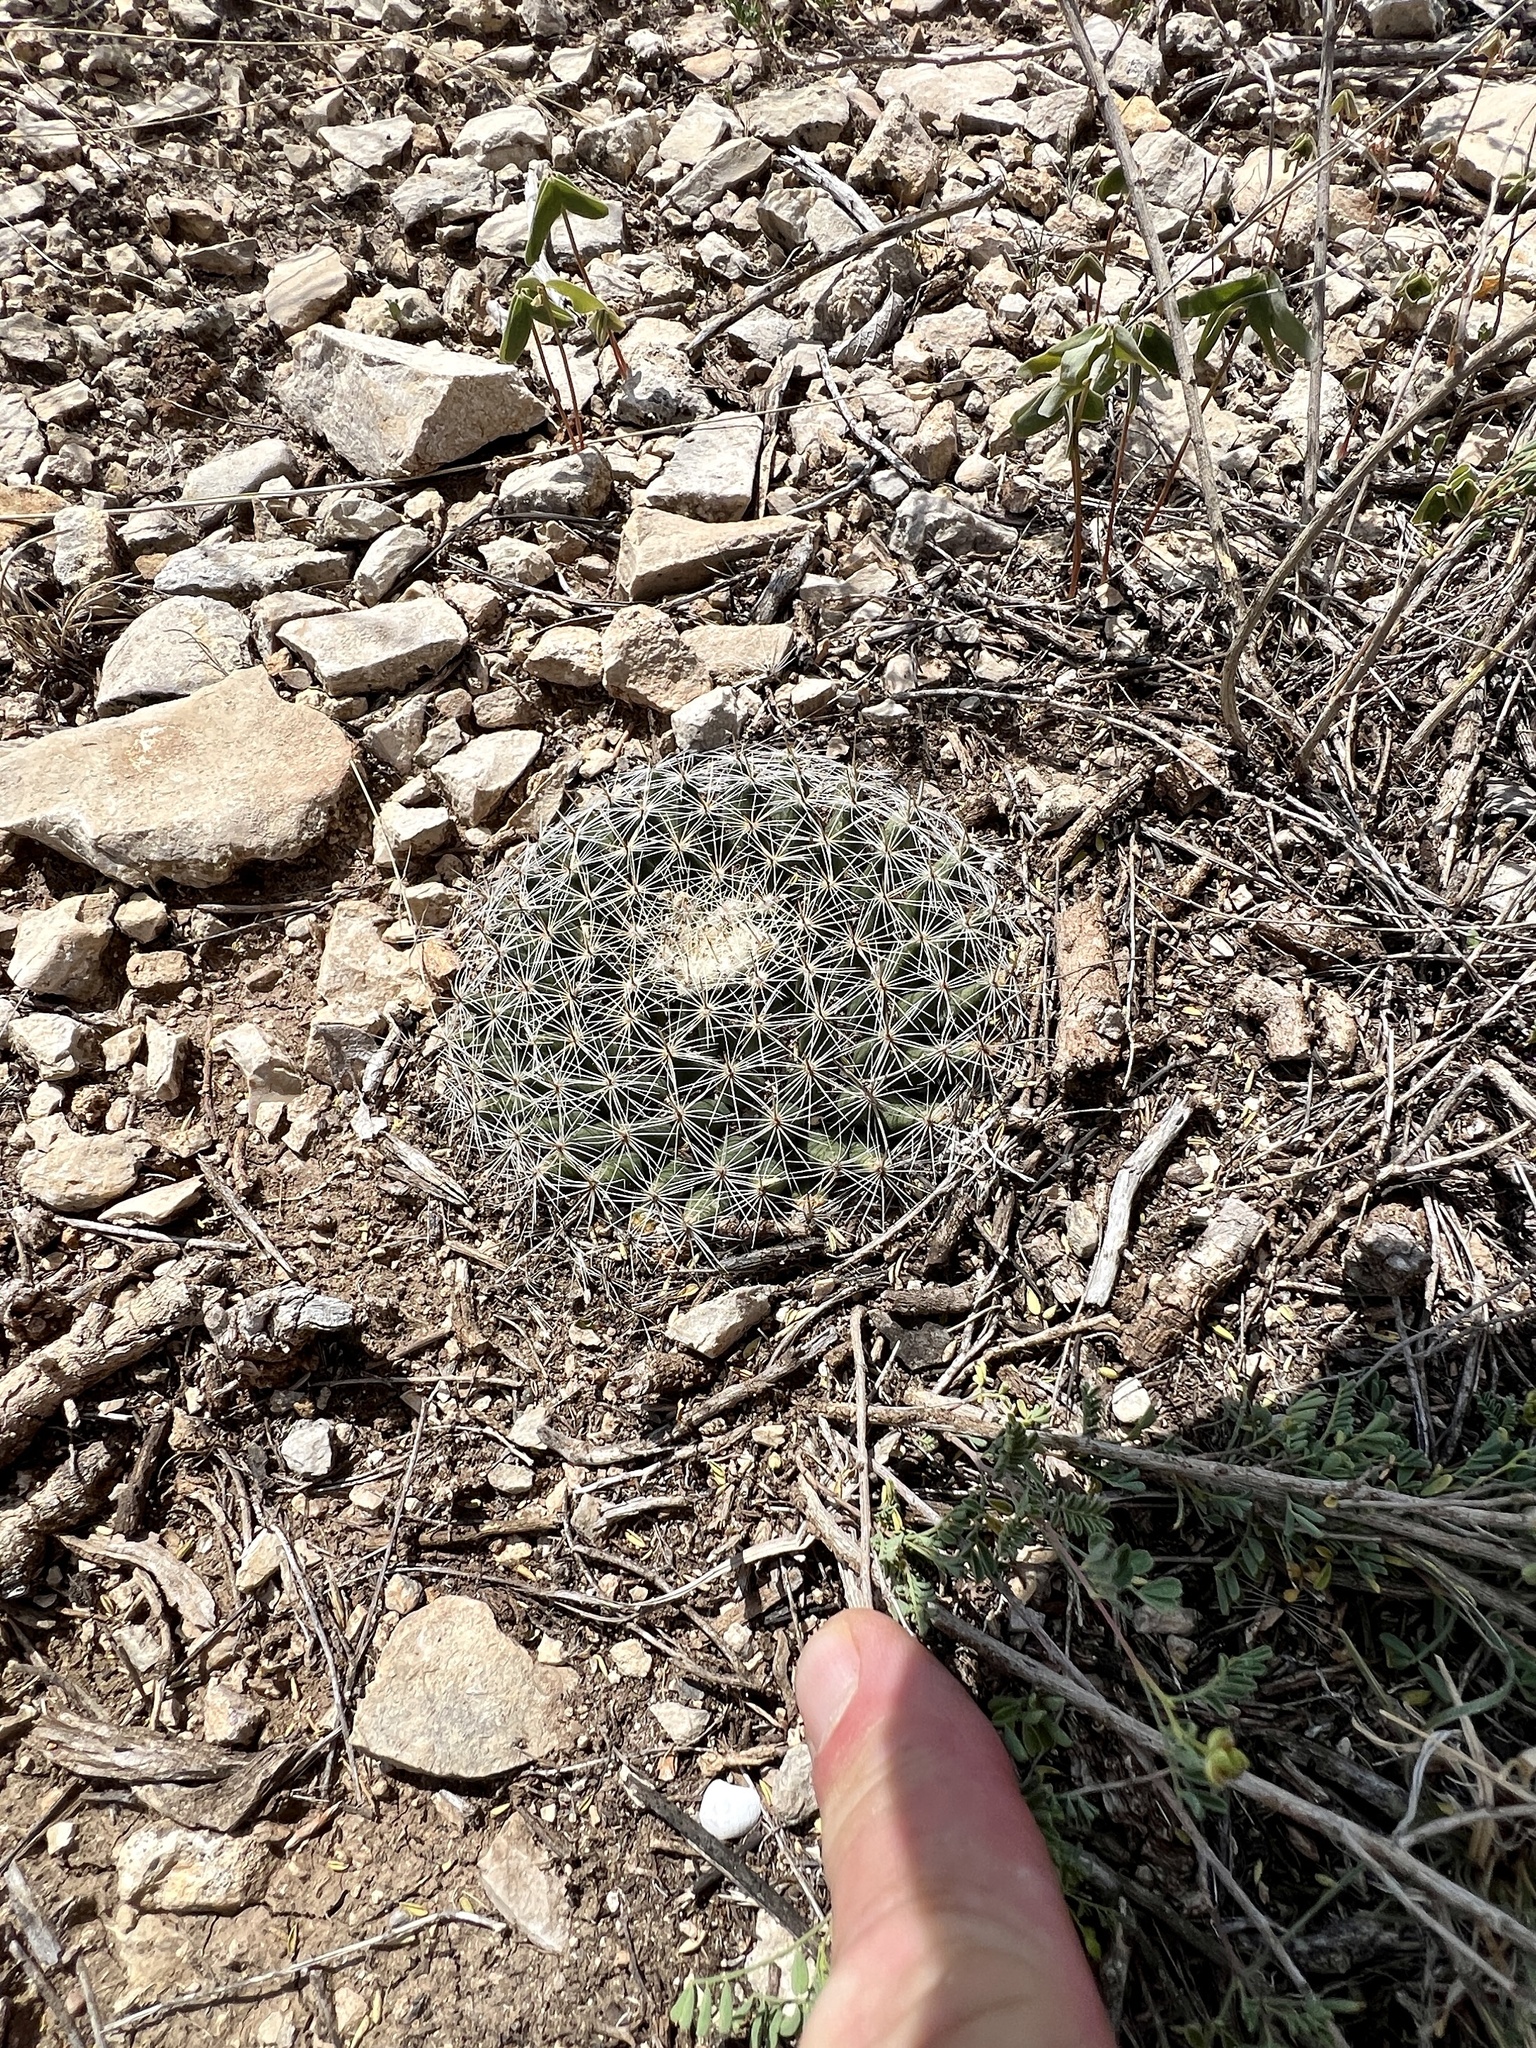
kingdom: Plantae
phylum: Tracheophyta
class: Magnoliopsida
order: Caryophyllales
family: Cactaceae
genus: Mammillaria
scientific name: Mammillaria heyderi
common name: Little nipple cactus
